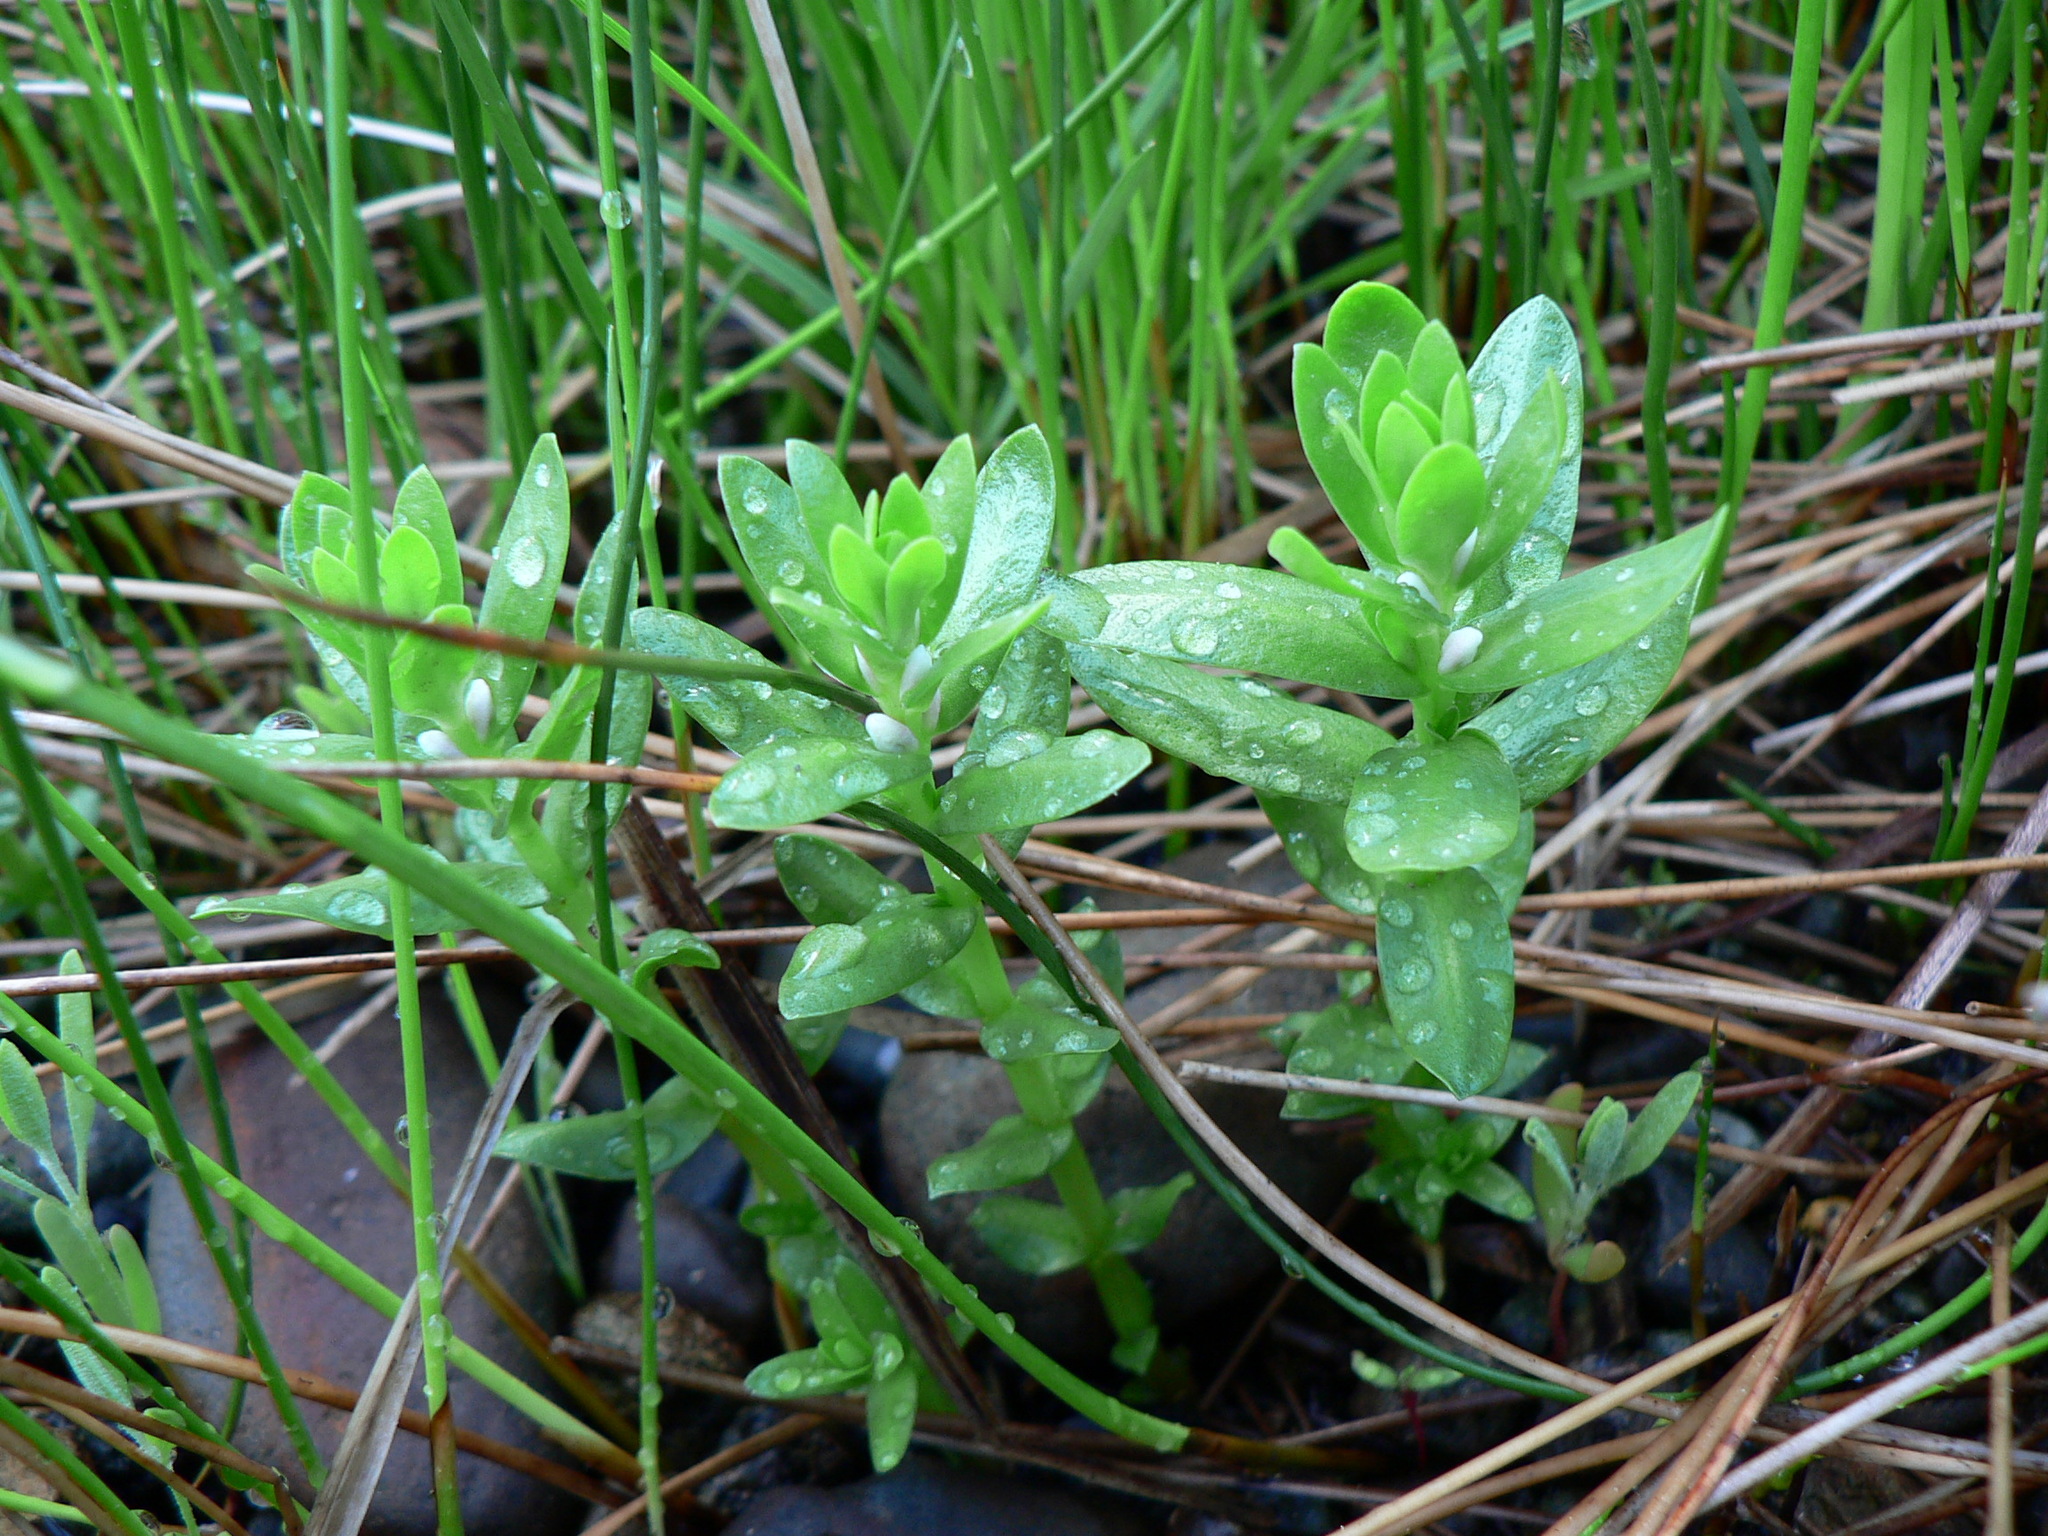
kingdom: Plantae
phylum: Tracheophyta
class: Magnoliopsida
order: Ericales
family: Primulaceae
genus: Lysimachia
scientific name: Lysimachia maritima
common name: Sea milkwort
